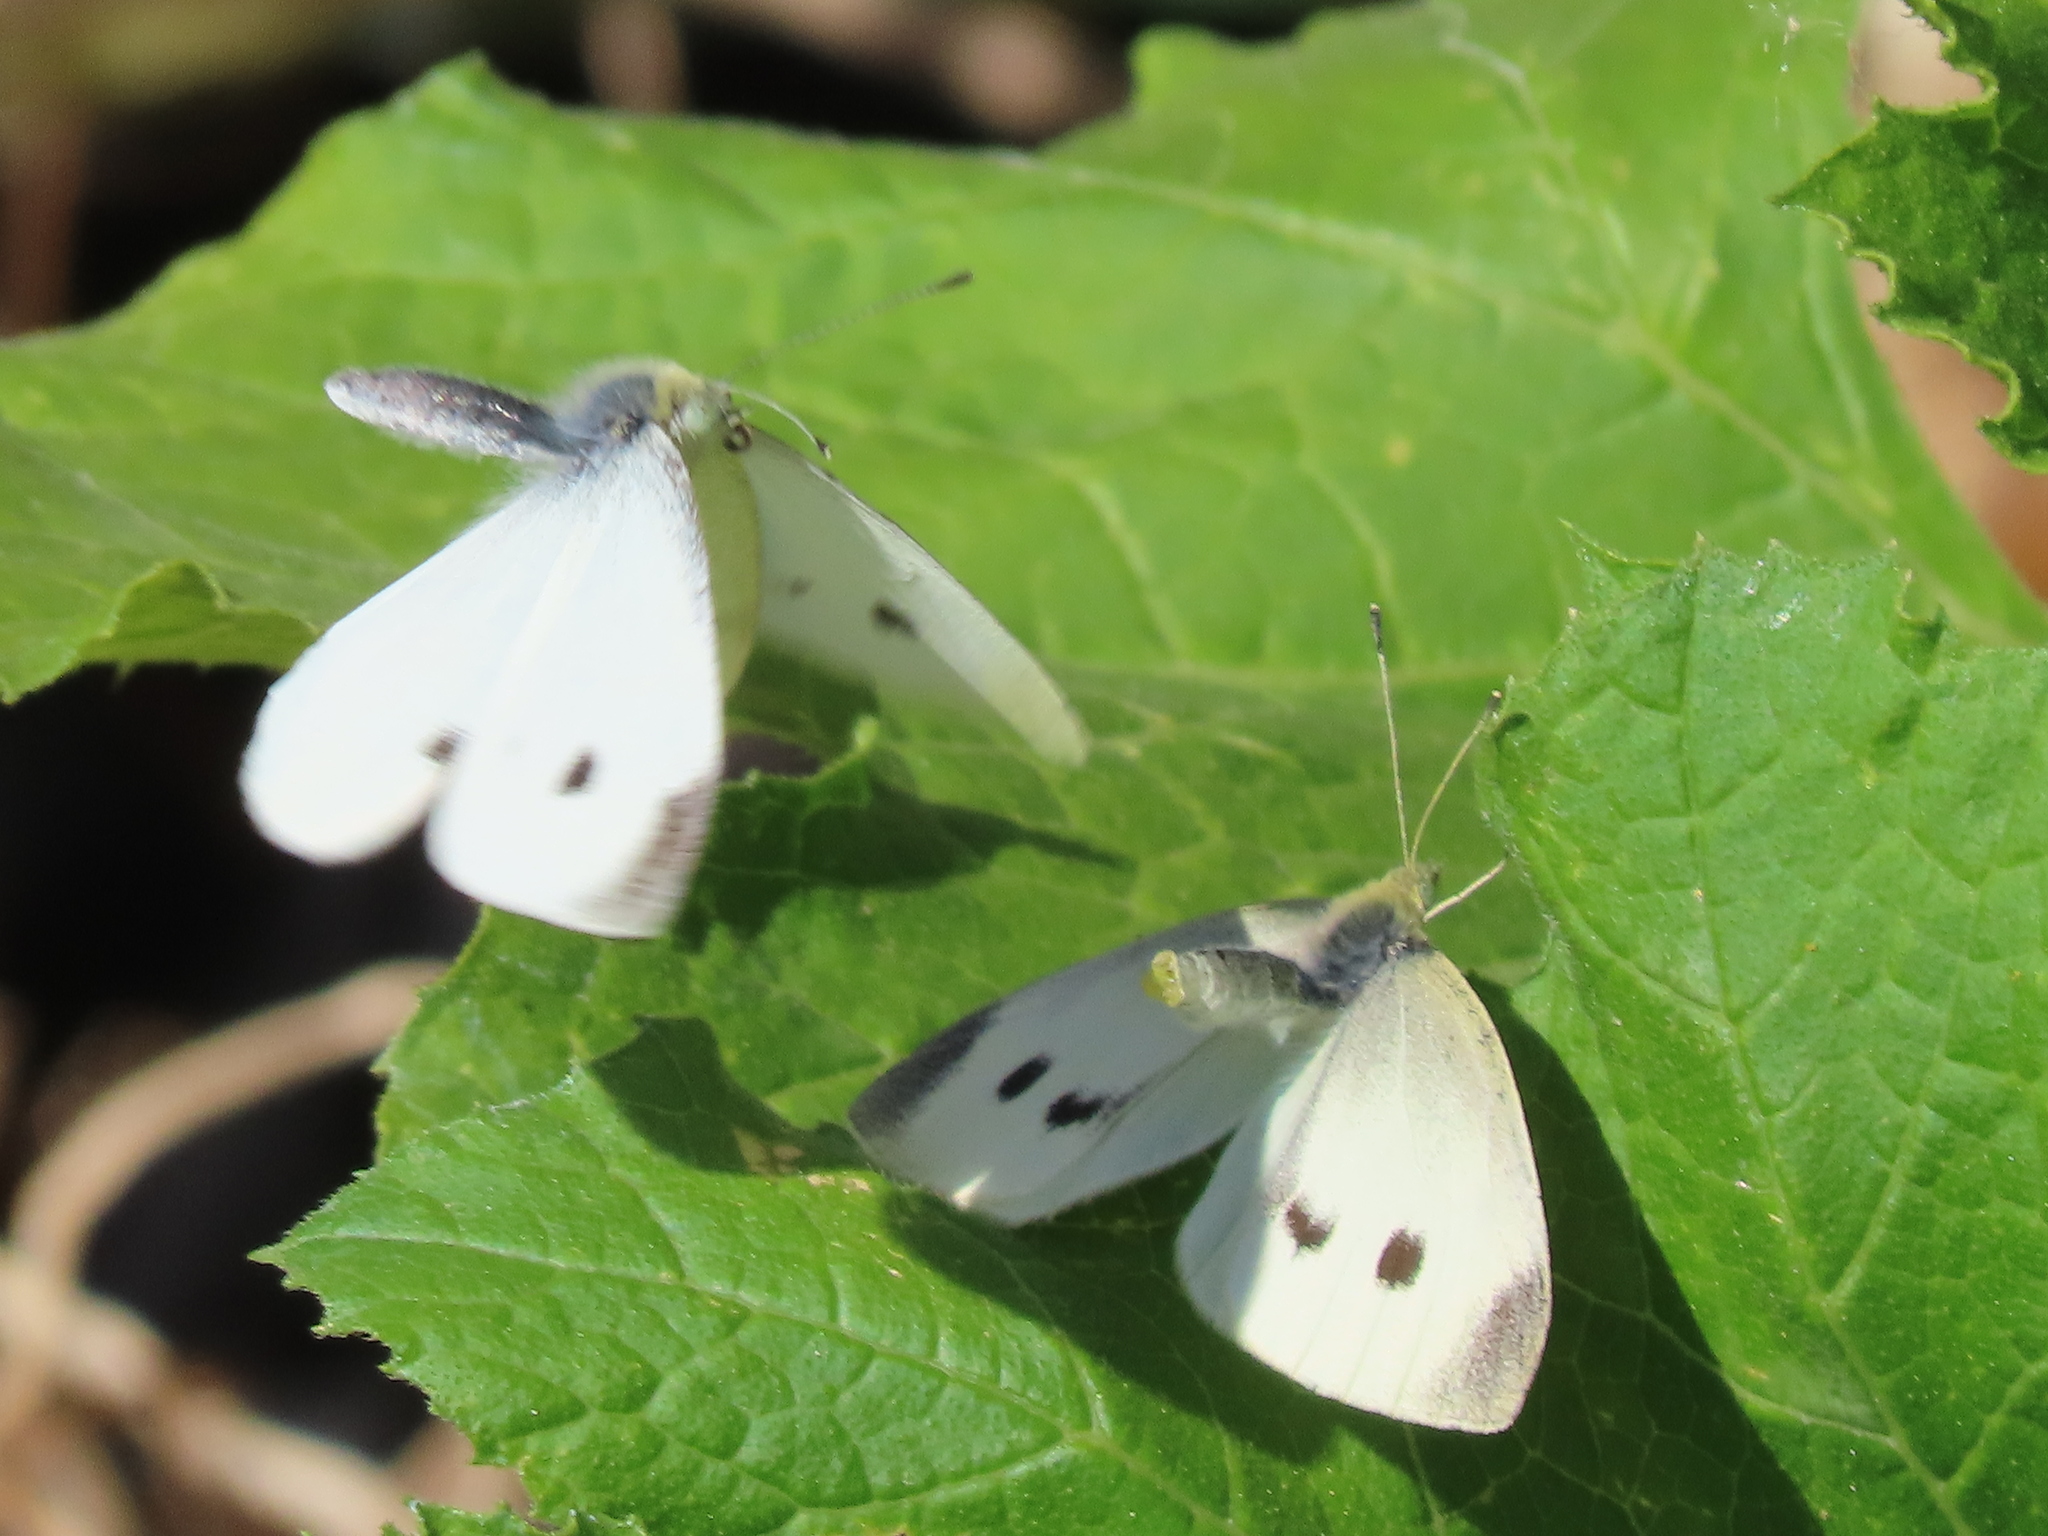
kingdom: Animalia
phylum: Arthropoda
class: Insecta
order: Lepidoptera
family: Pieridae
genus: Pieris
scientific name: Pieris rapae
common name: Small white
